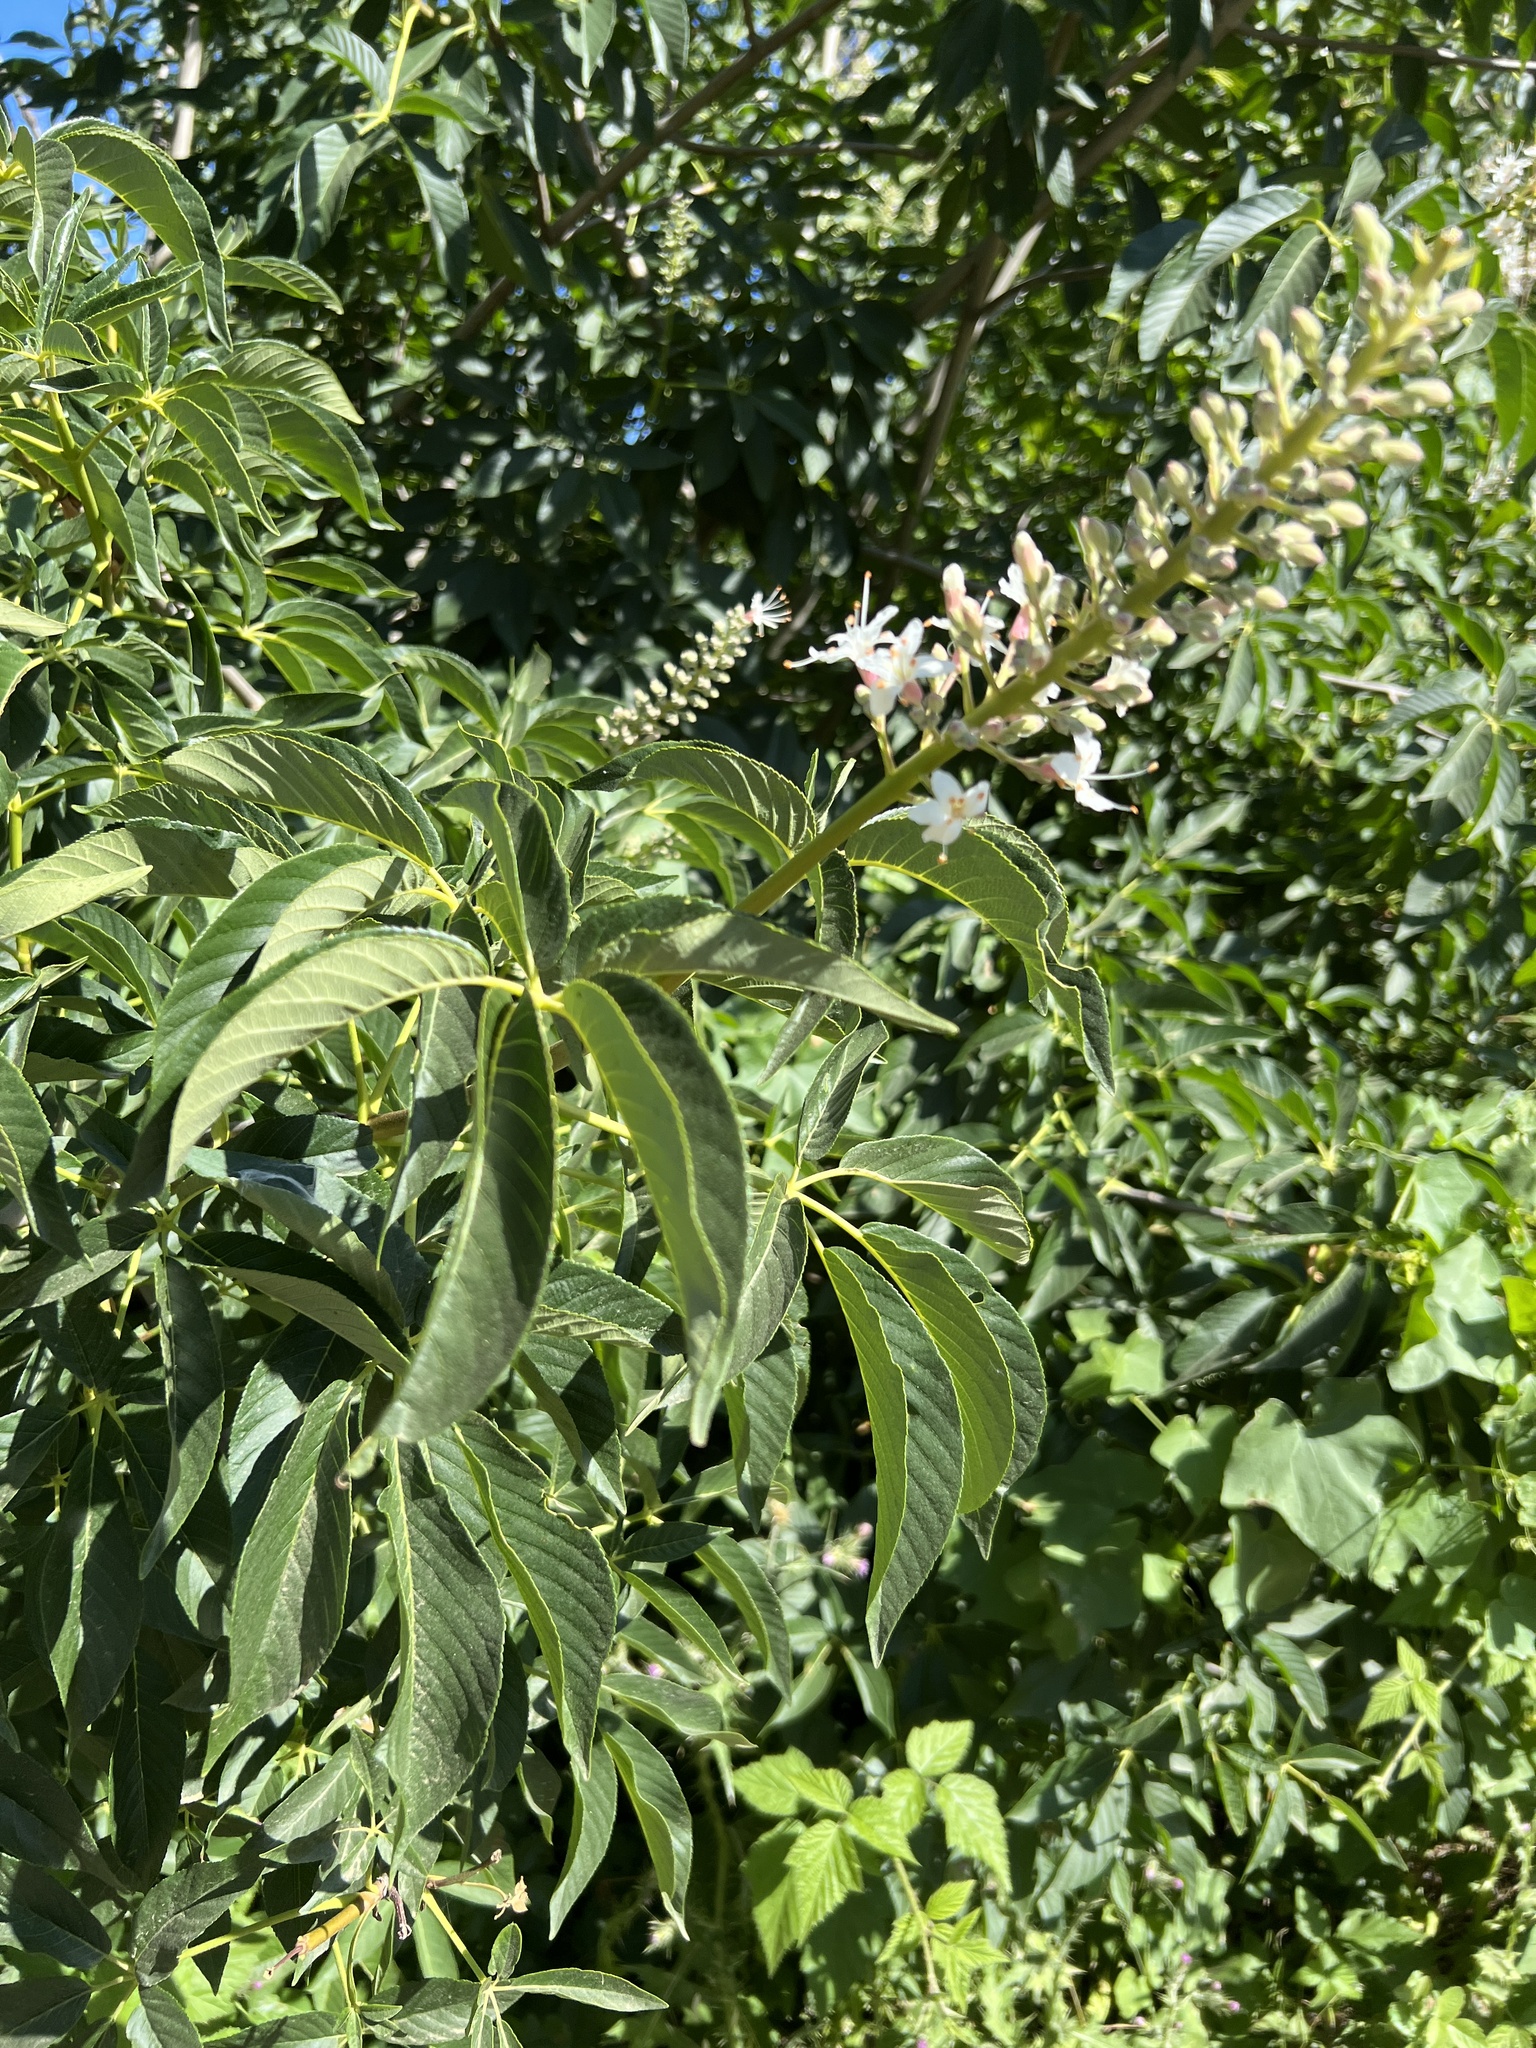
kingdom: Plantae
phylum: Tracheophyta
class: Magnoliopsida
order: Sapindales
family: Sapindaceae
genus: Aesculus
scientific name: Aesculus californica
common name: California buckeye
